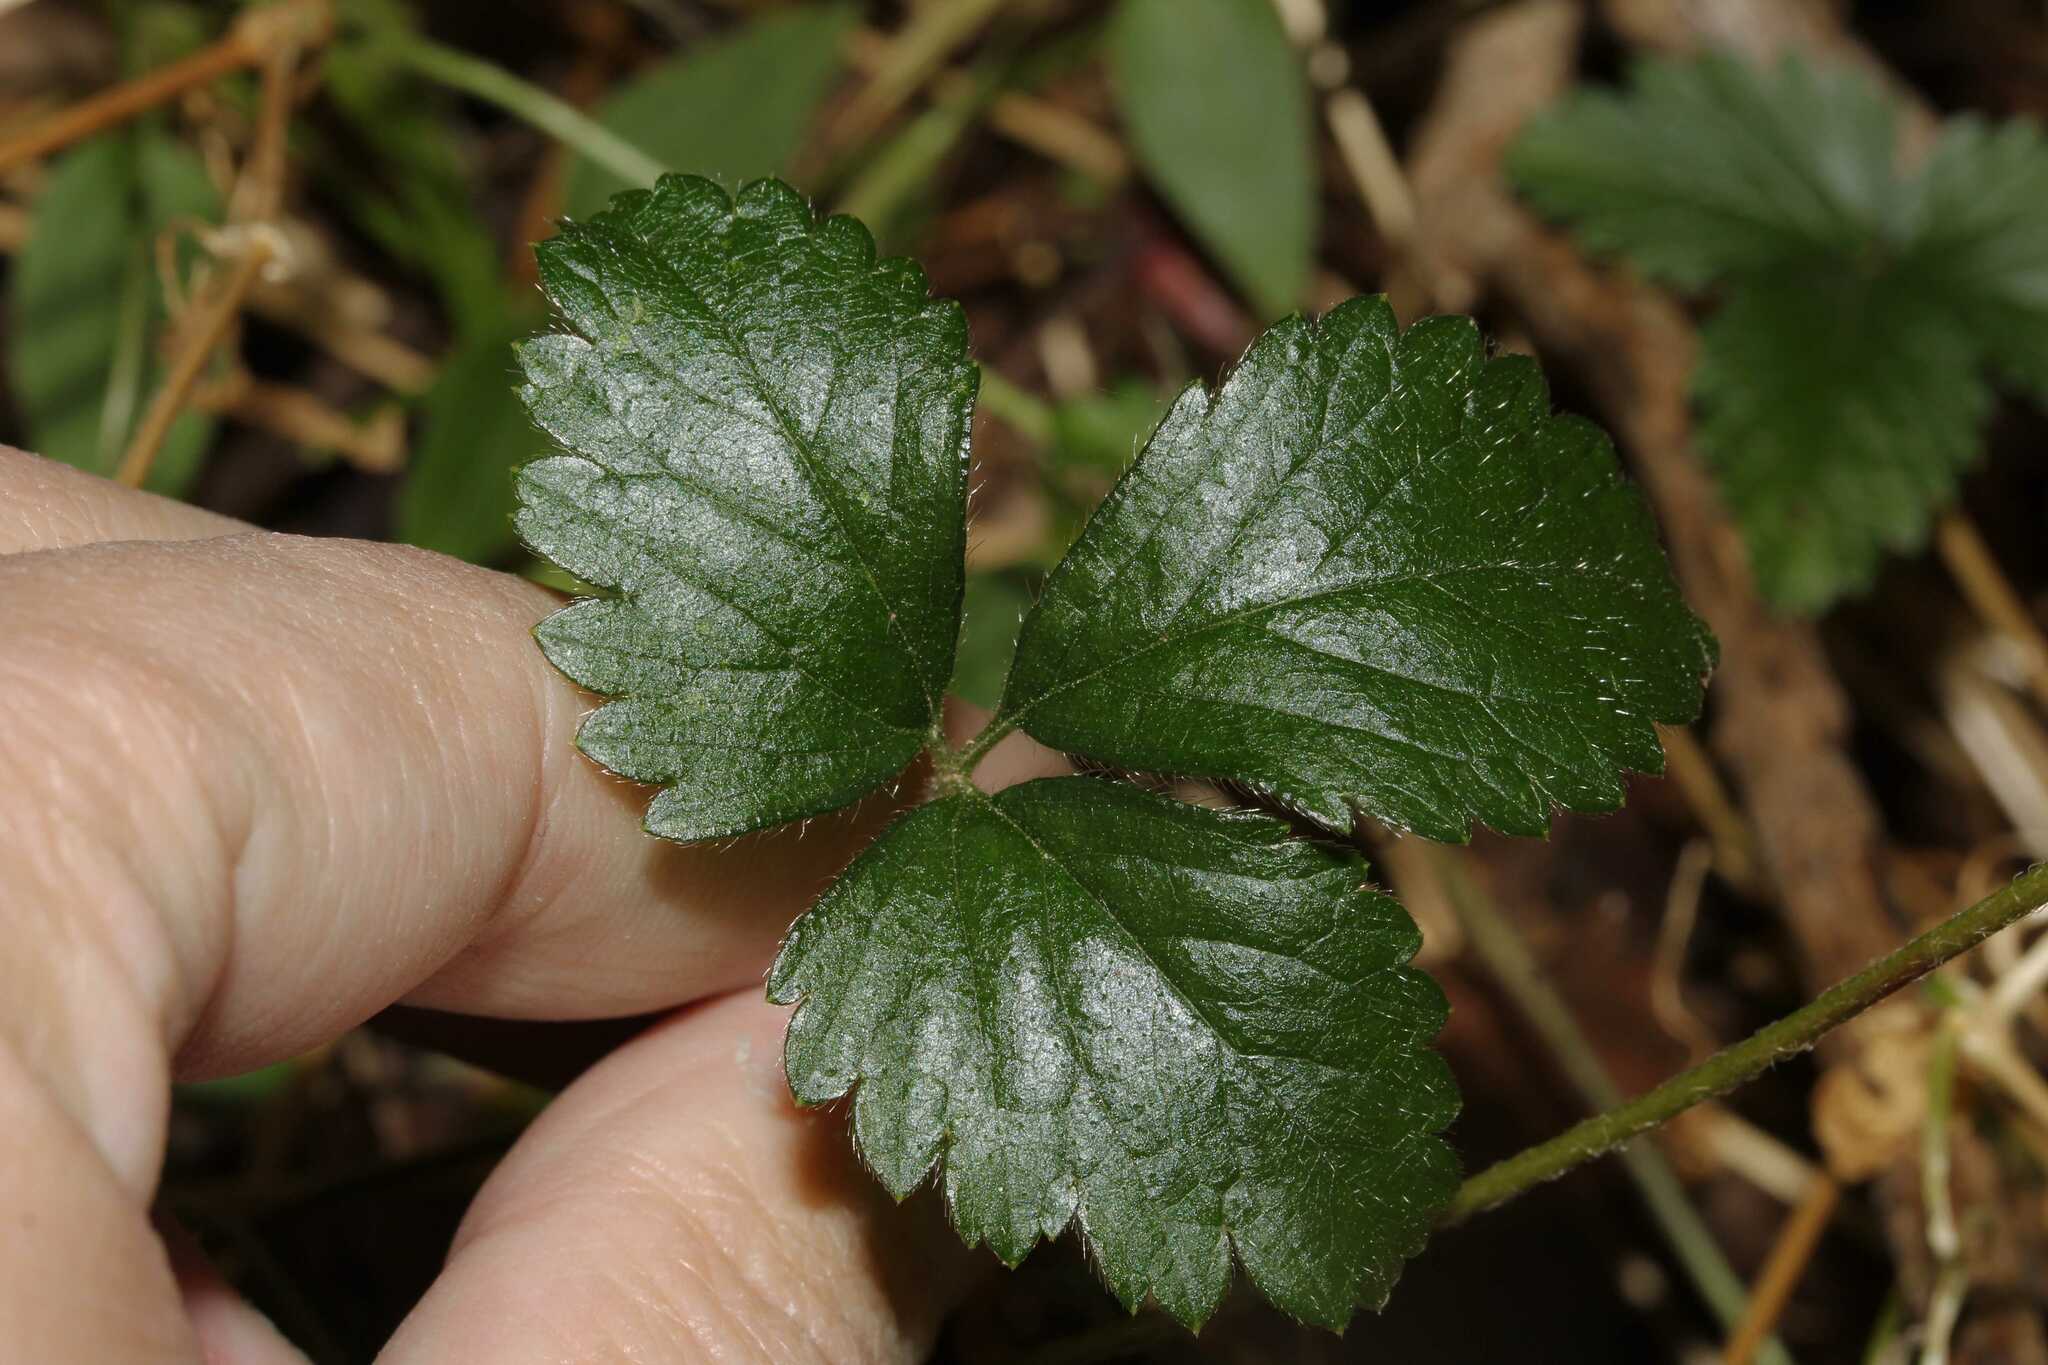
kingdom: Plantae
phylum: Tracheophyta
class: Magnoliopsida
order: Rosales
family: Rosaceae
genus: Potentilla
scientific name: Potentilla indica
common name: Yellow-flowered strawberry
